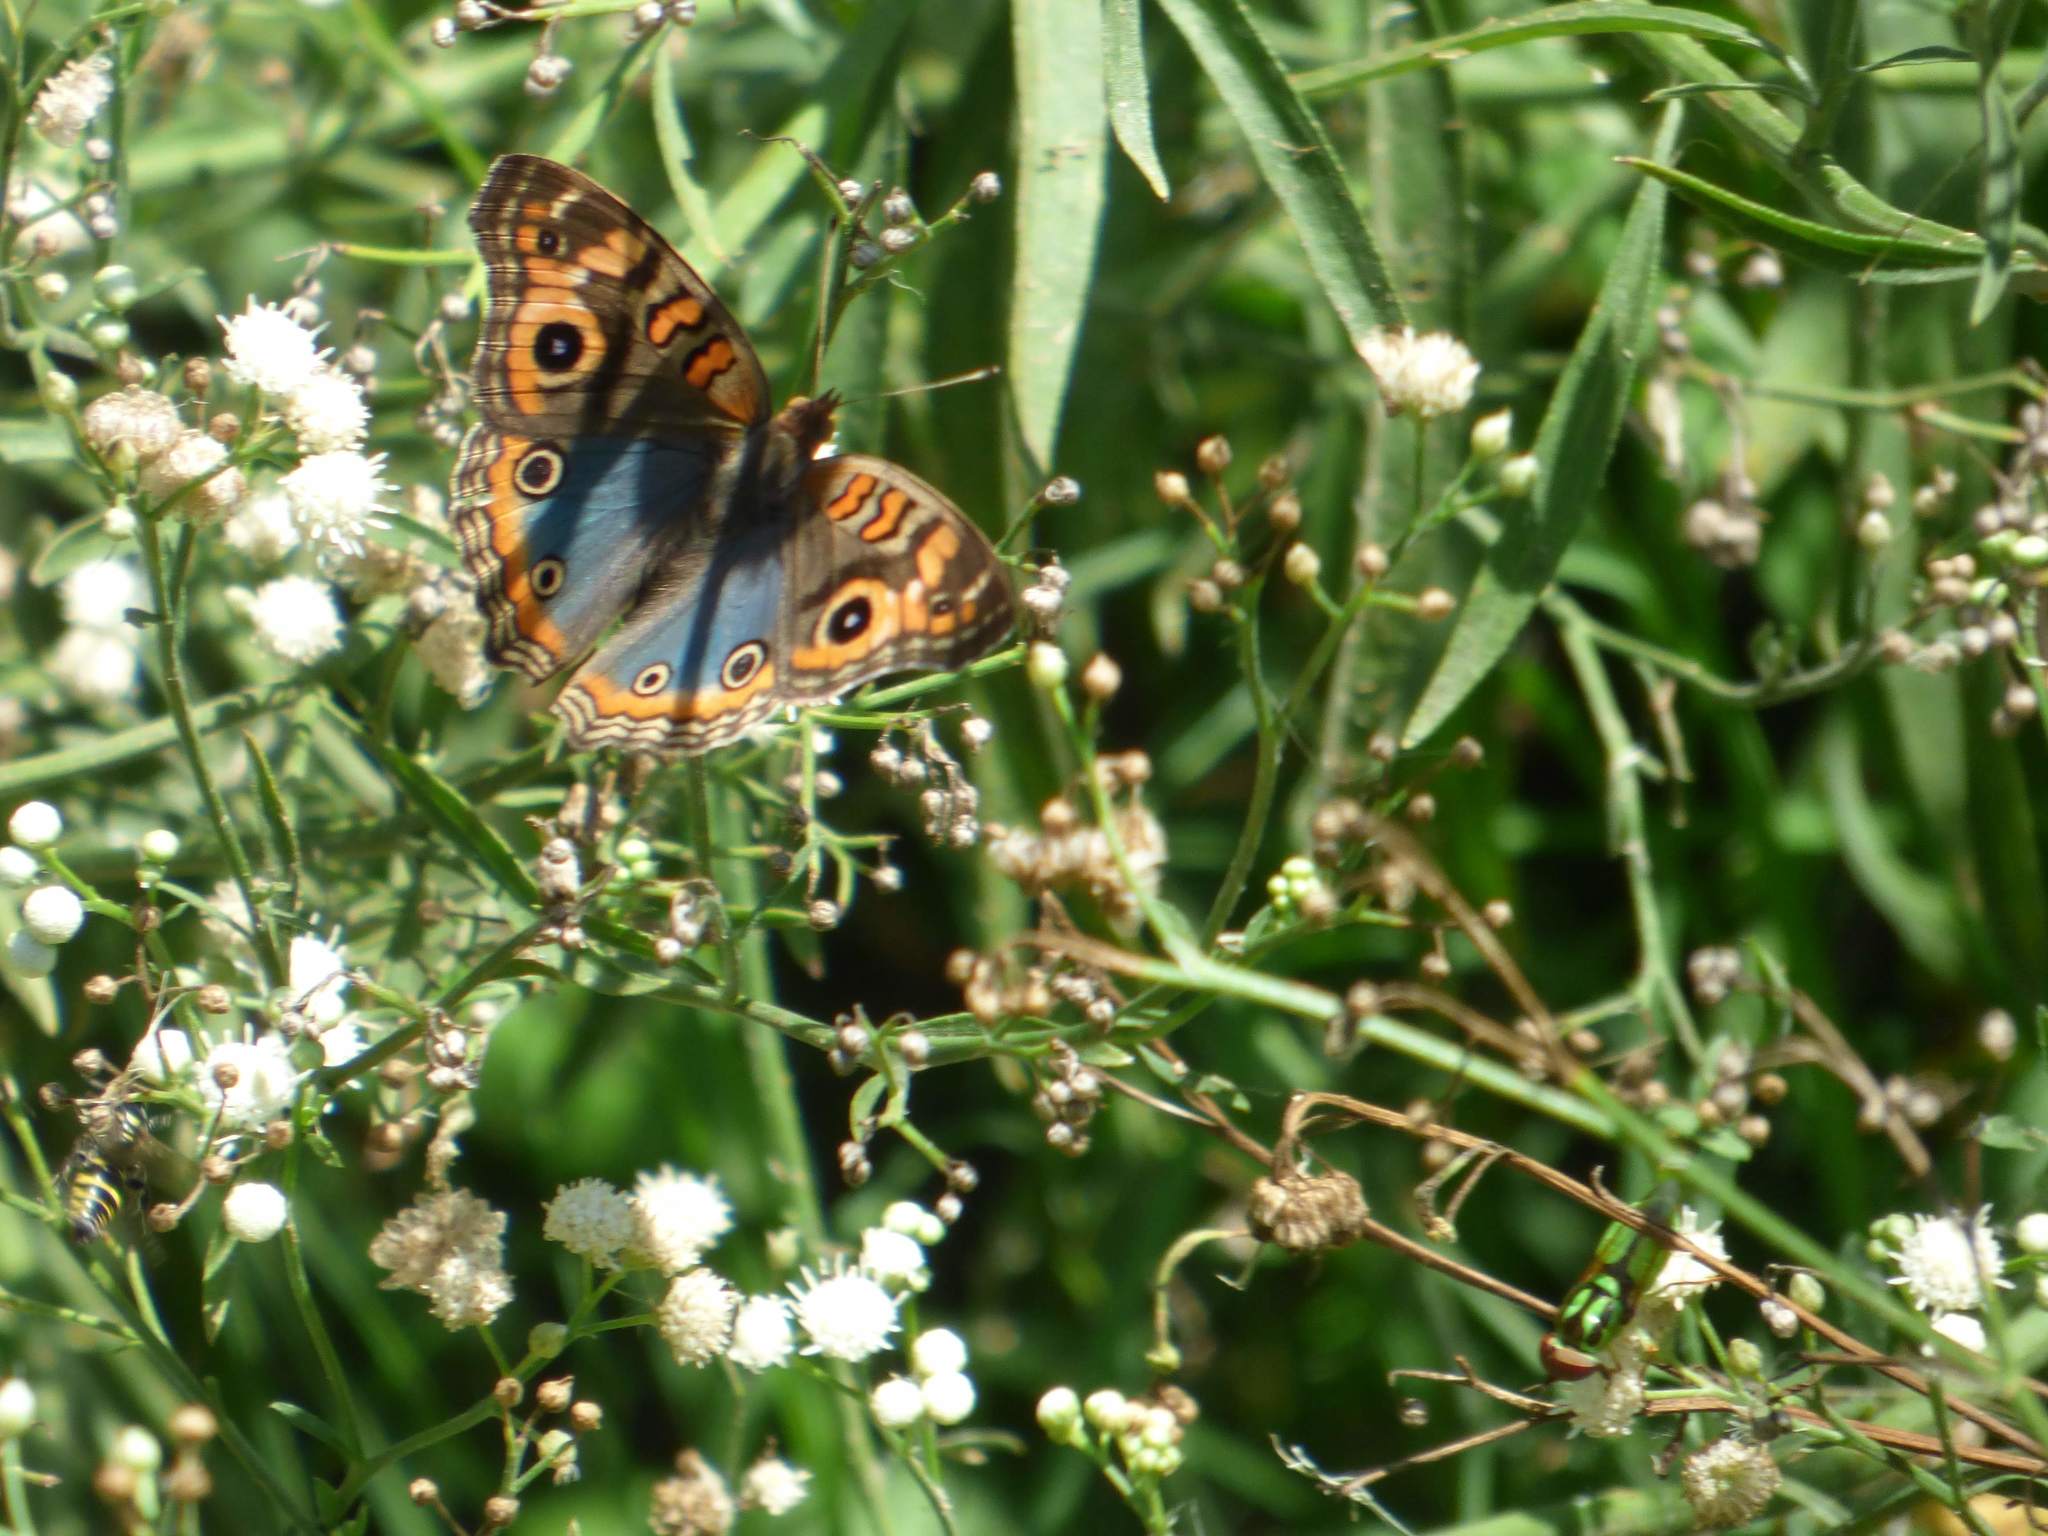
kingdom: Animalia
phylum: Arthropoda
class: Insecta
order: Lepidoptera
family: Nymphalidae
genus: Junonia
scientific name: Junonia lavinia
